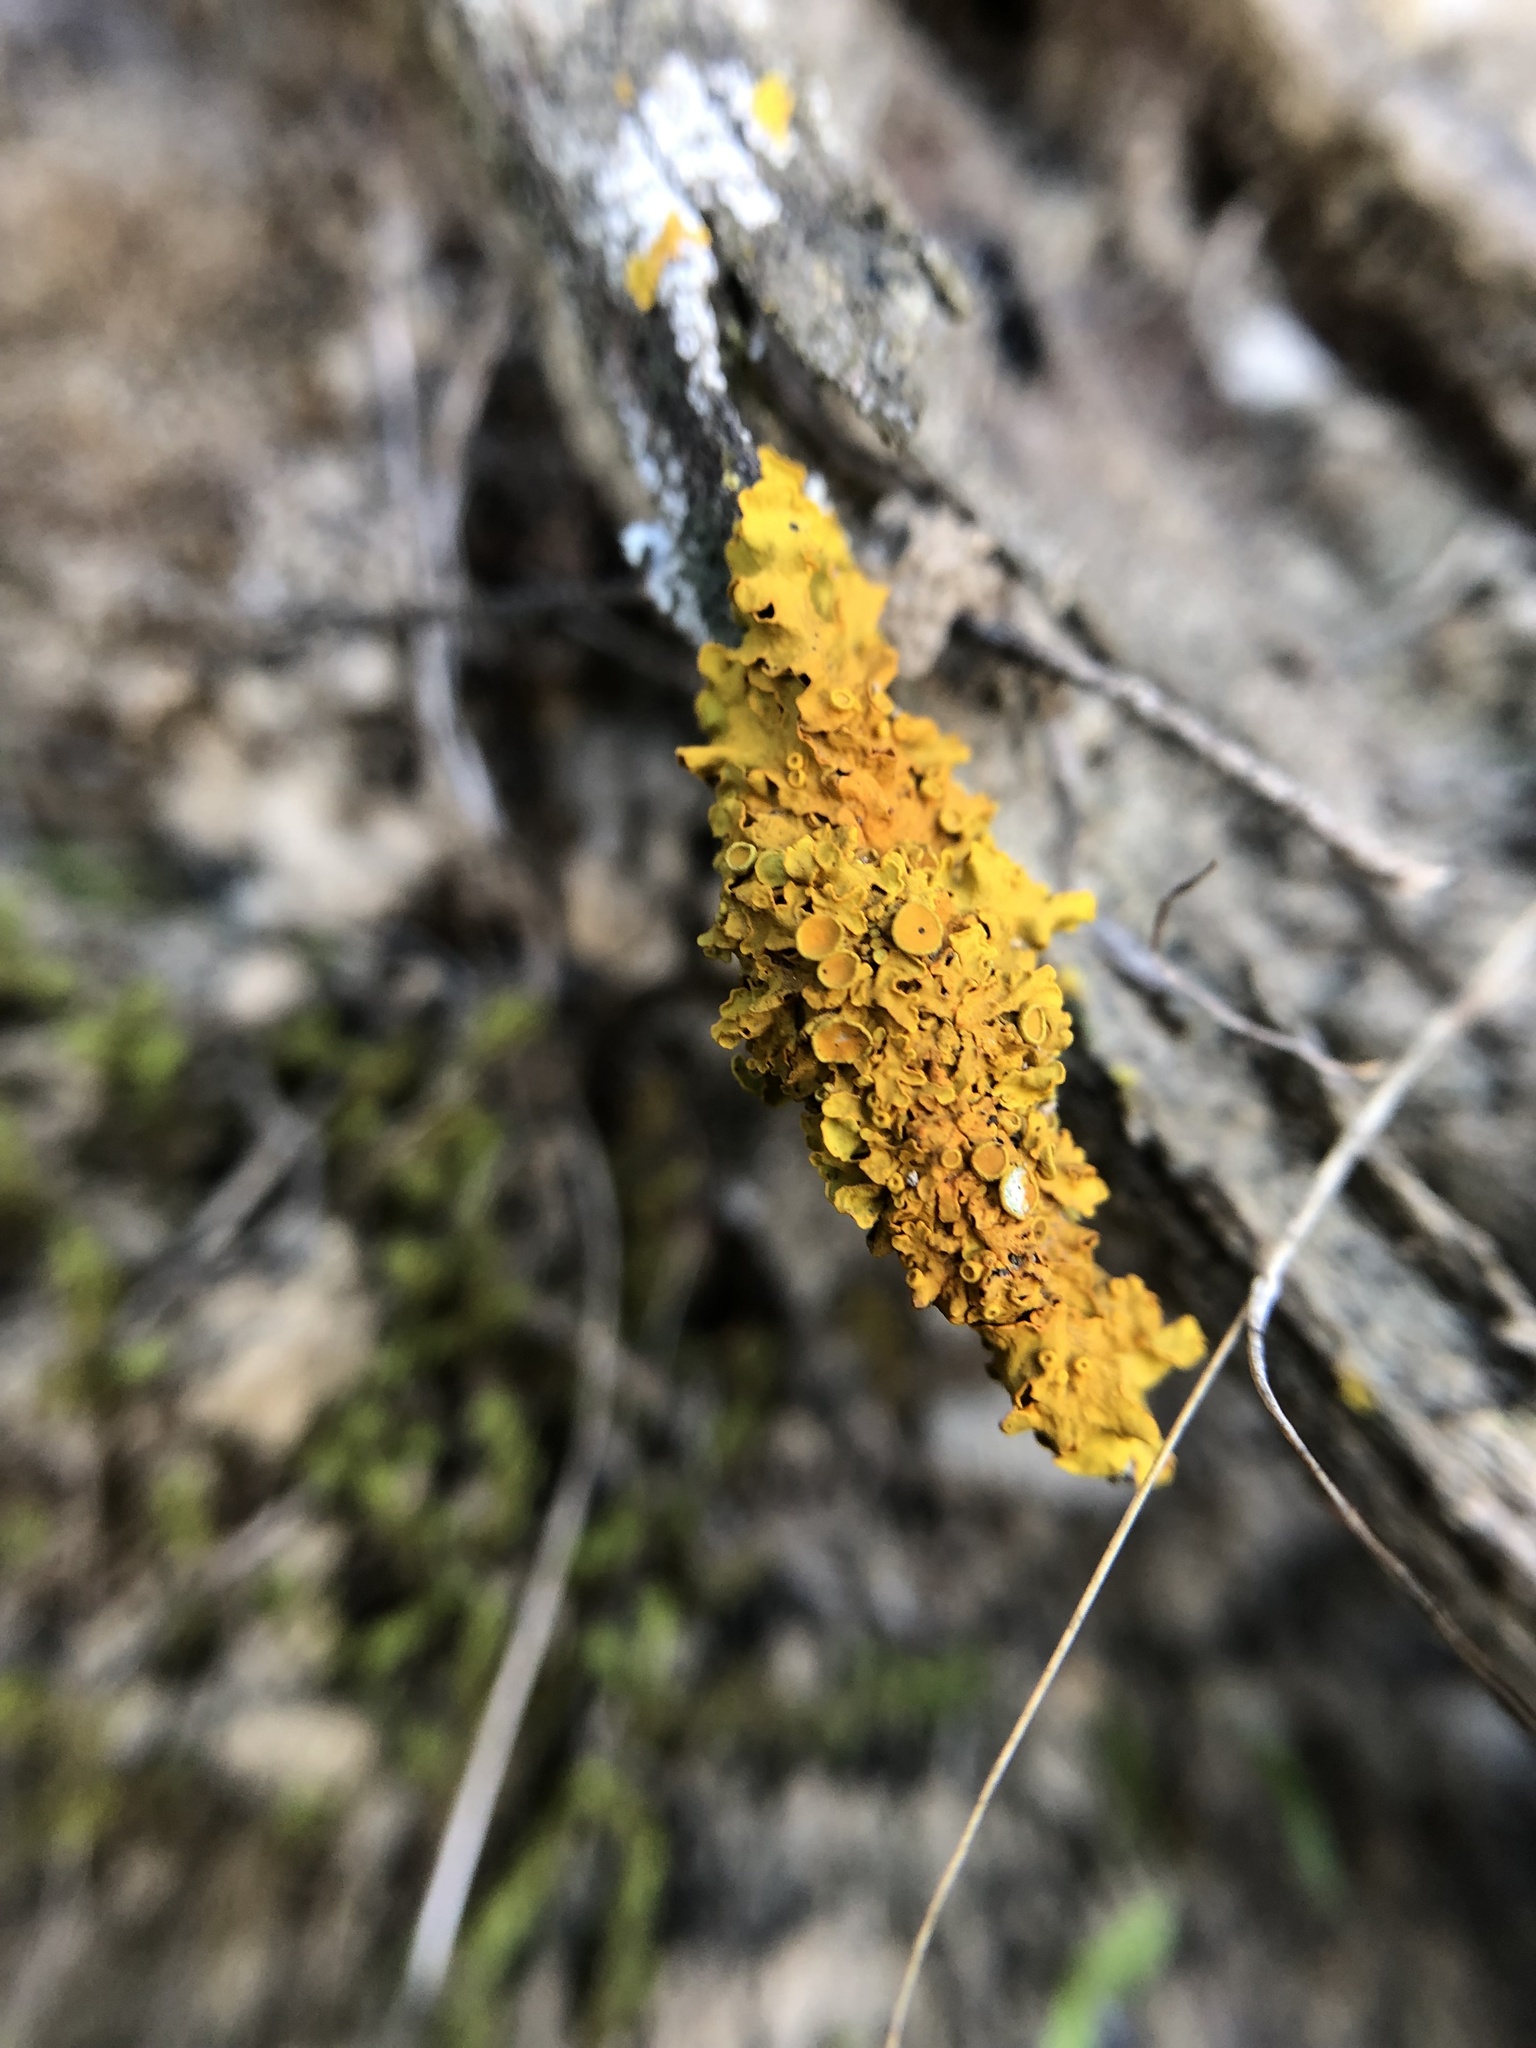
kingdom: Fungi
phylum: Ascomycota
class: Lecanoromycetes
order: Teloschistales
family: Teloschistaceae
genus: Xanthoria
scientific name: Xanthoria parietina
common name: Common orange lichen
